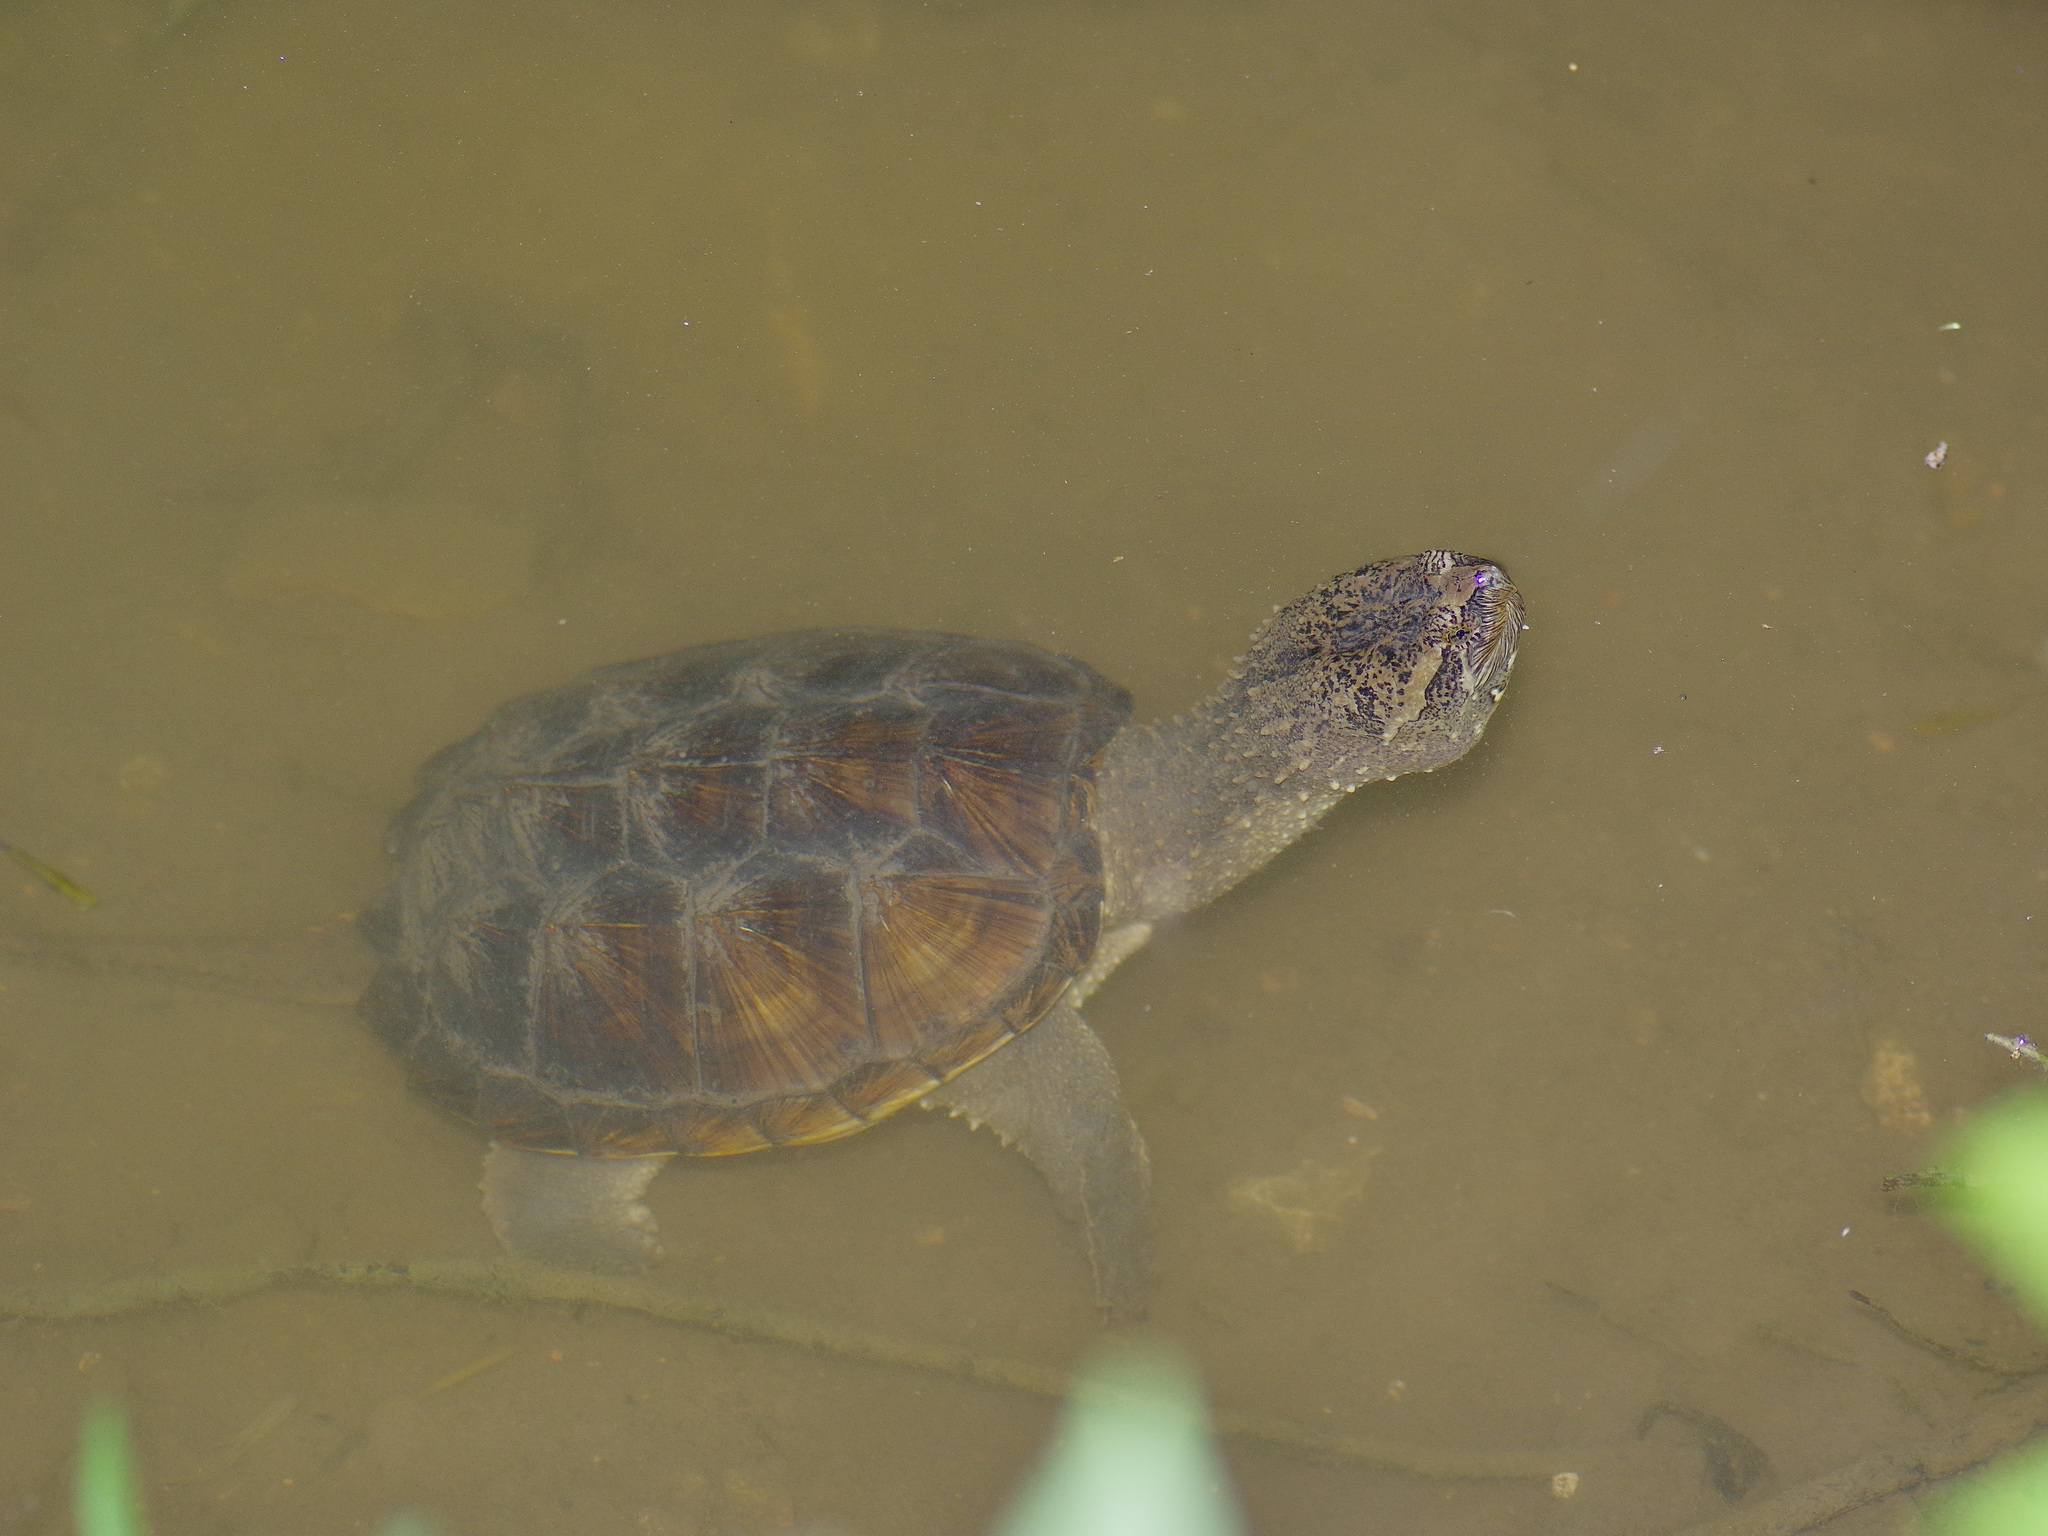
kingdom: Animalia
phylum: Chordata
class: Testudines
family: Chelydridae
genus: Chelydra
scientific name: Chelydra serpentina
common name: Common snapping turtle
